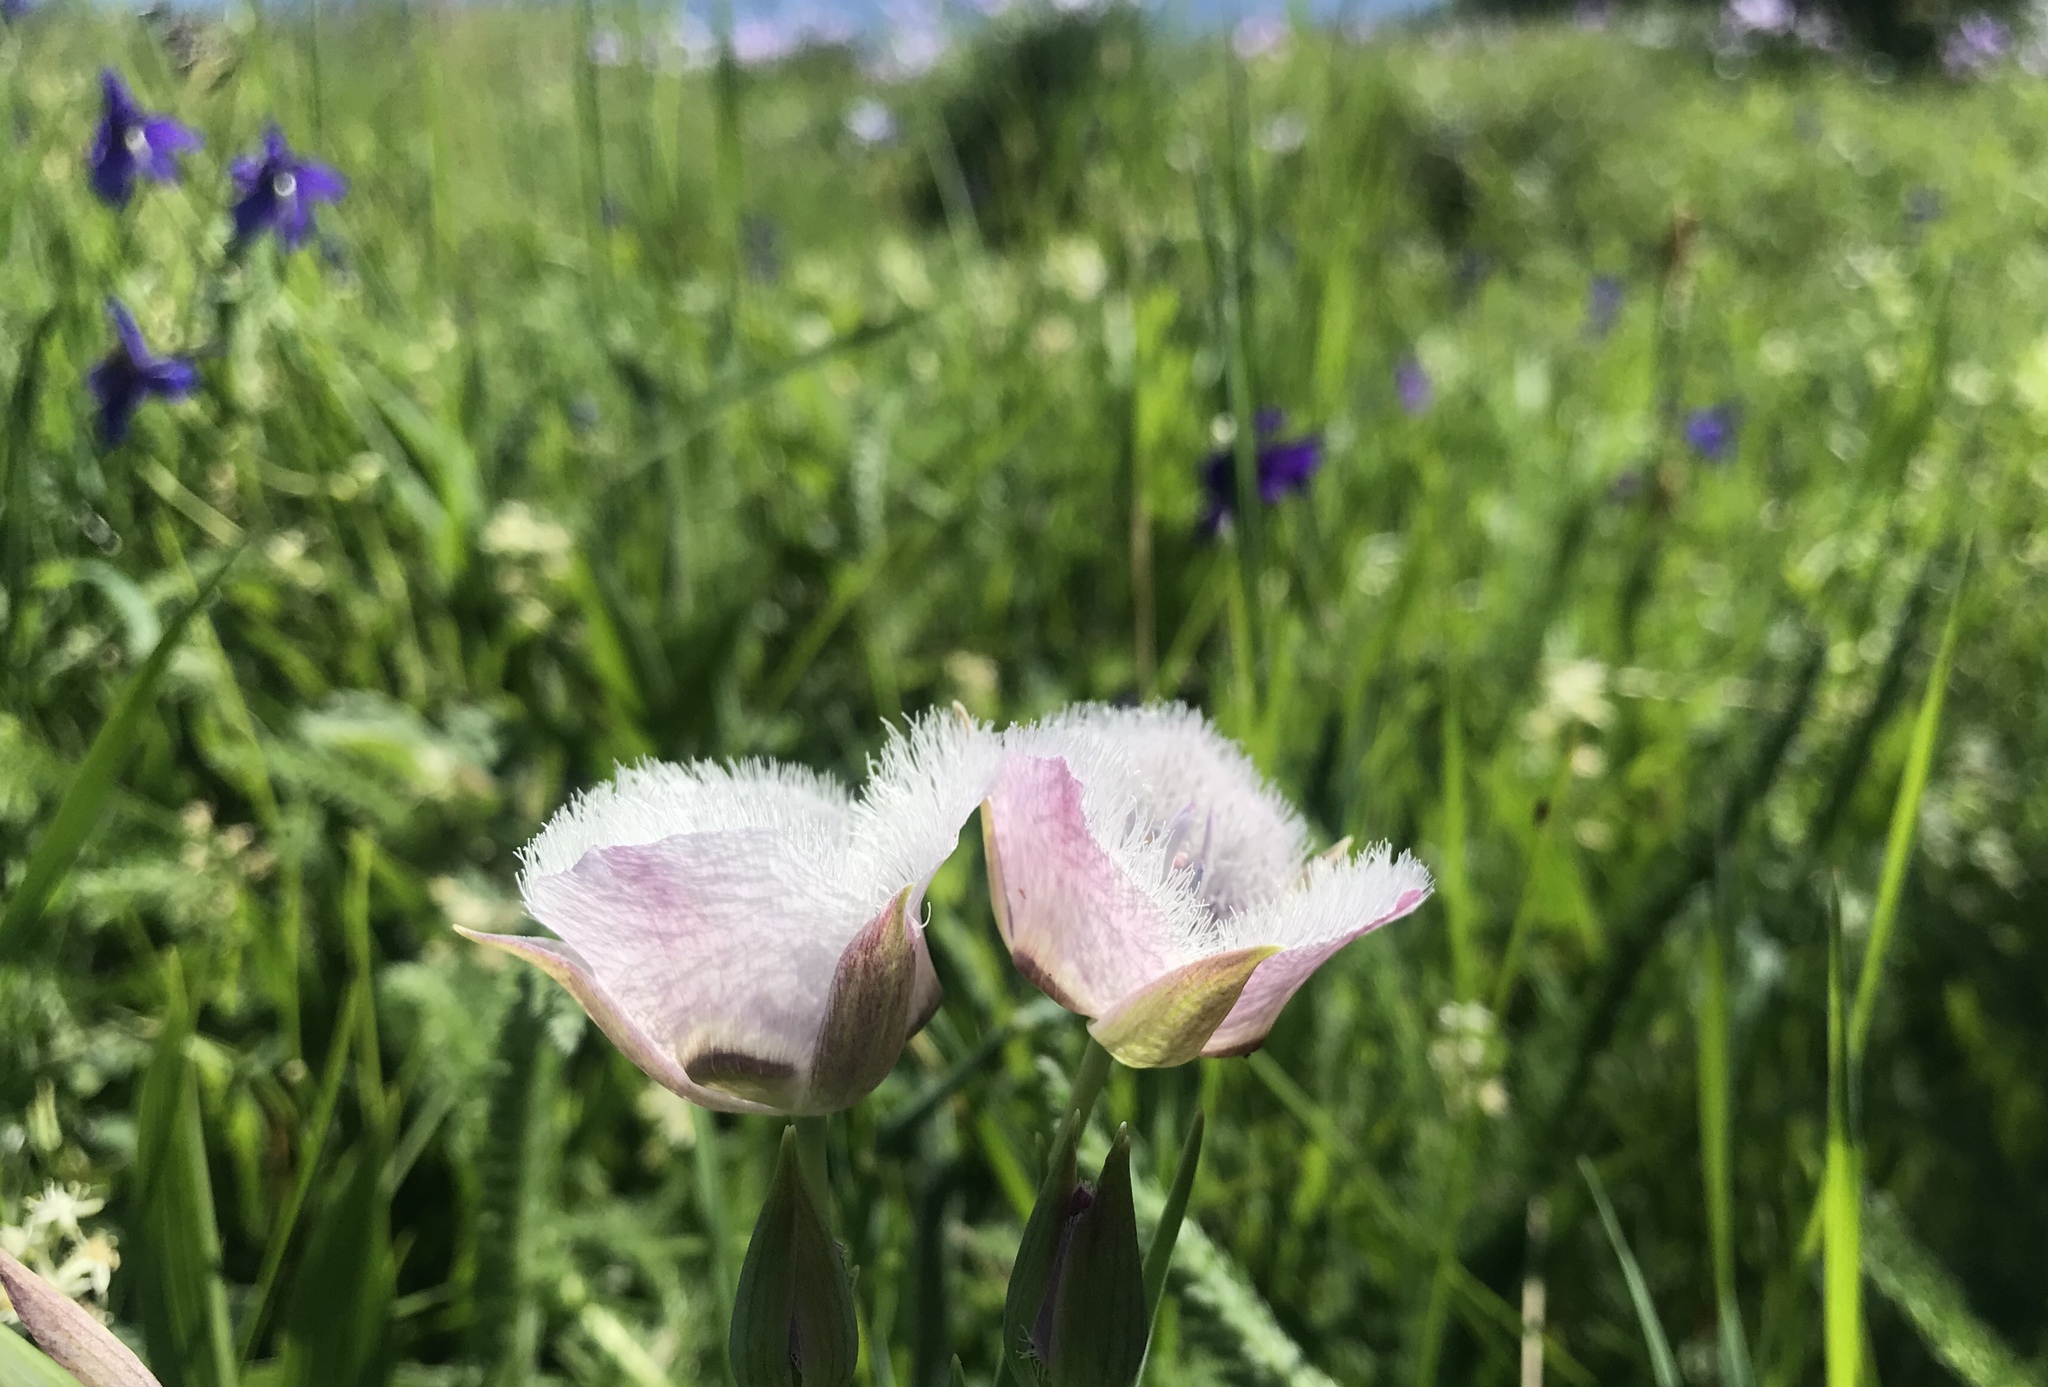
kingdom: Plantae
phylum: Tracheophyta
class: Liliopsida
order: Liliales
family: Liliaceae
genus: Calochortus
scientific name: Calochortus tolmiei
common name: Pussy-ears
